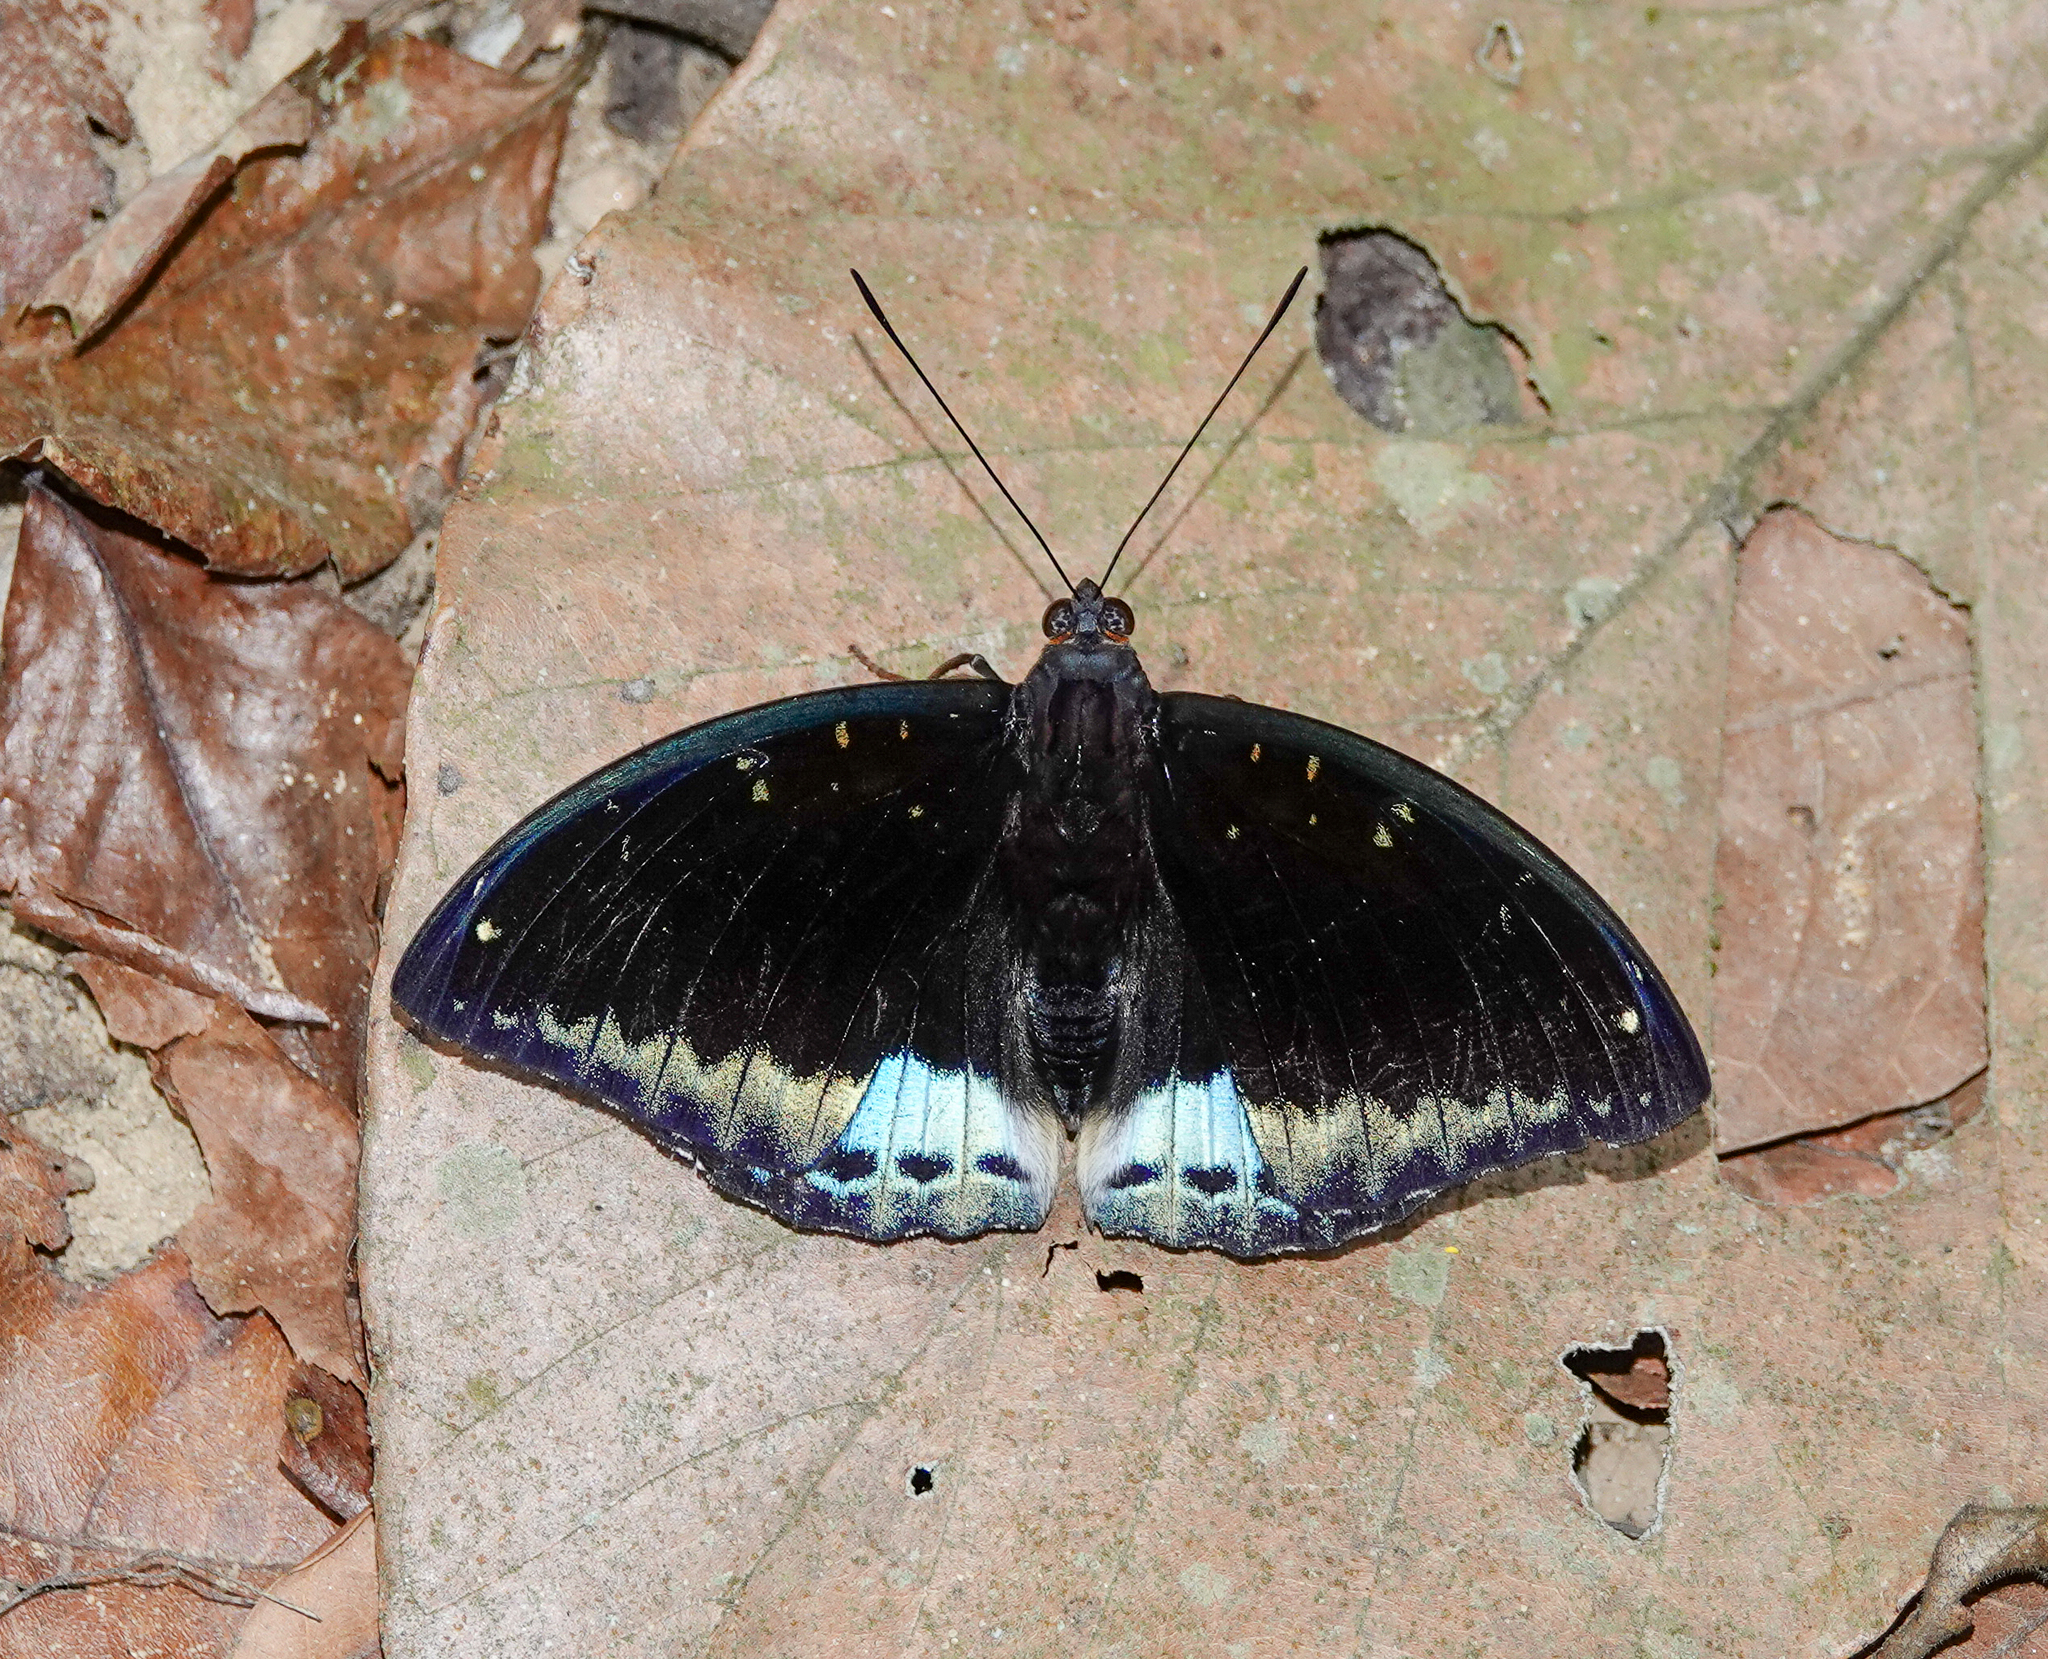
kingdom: Animalia
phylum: Arthropoda
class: Insecta
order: Lepidoptera
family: Nymphalidae
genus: Lexias
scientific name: Lexias dirtea
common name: Black-tipped archduke
